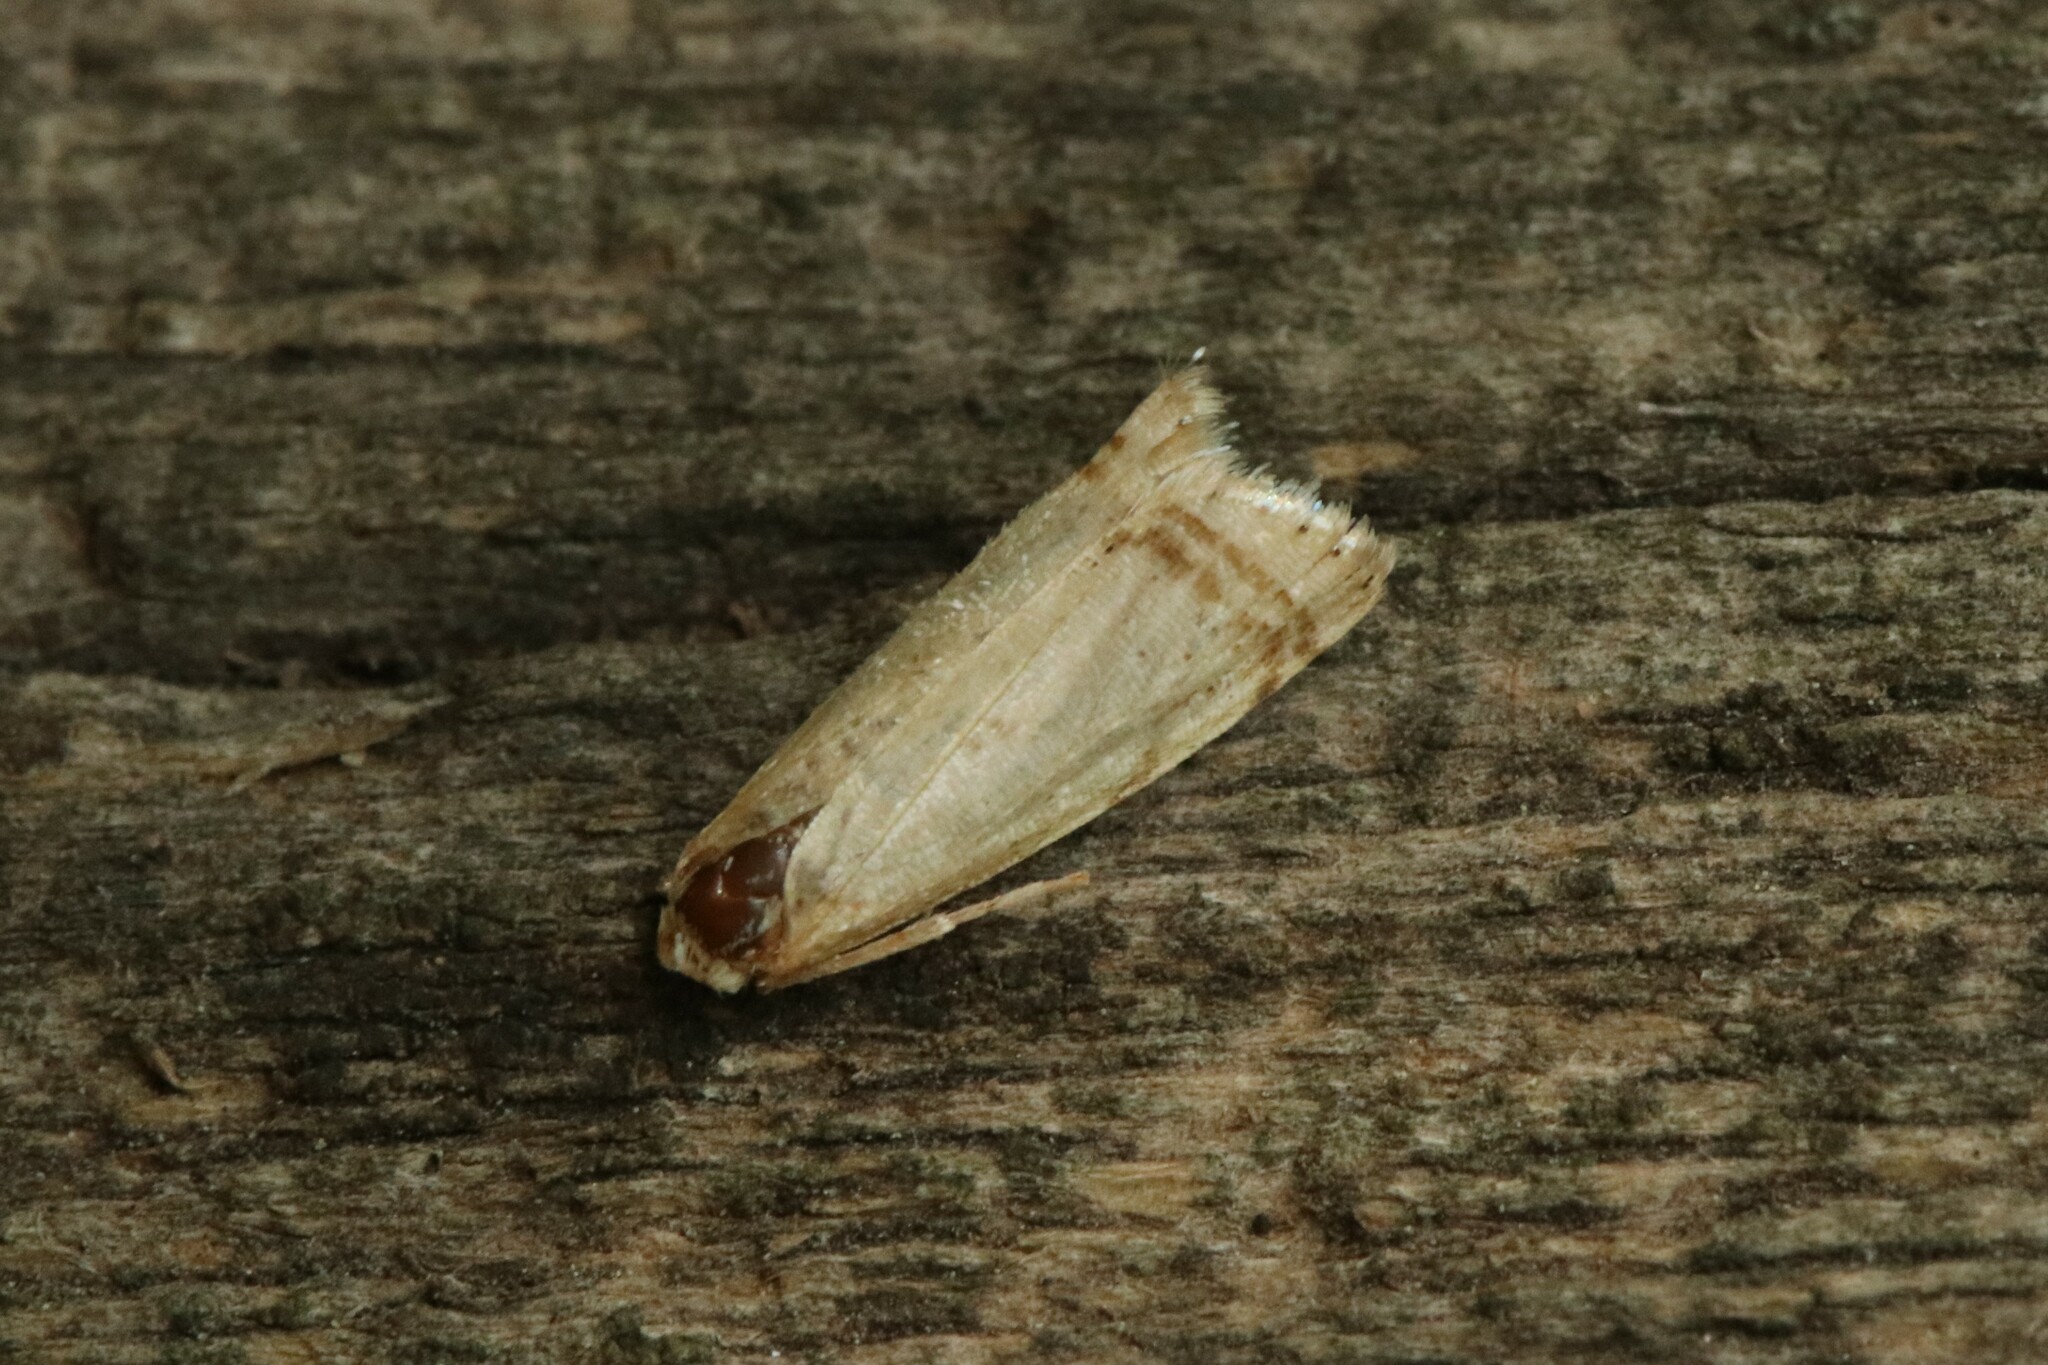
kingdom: Animalia
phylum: Arthropoda
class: Insecta
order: Lepidoptera
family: Crambidae
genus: Microcrambus
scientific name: Microcrambus elegans
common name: Elegant grass-veneer
